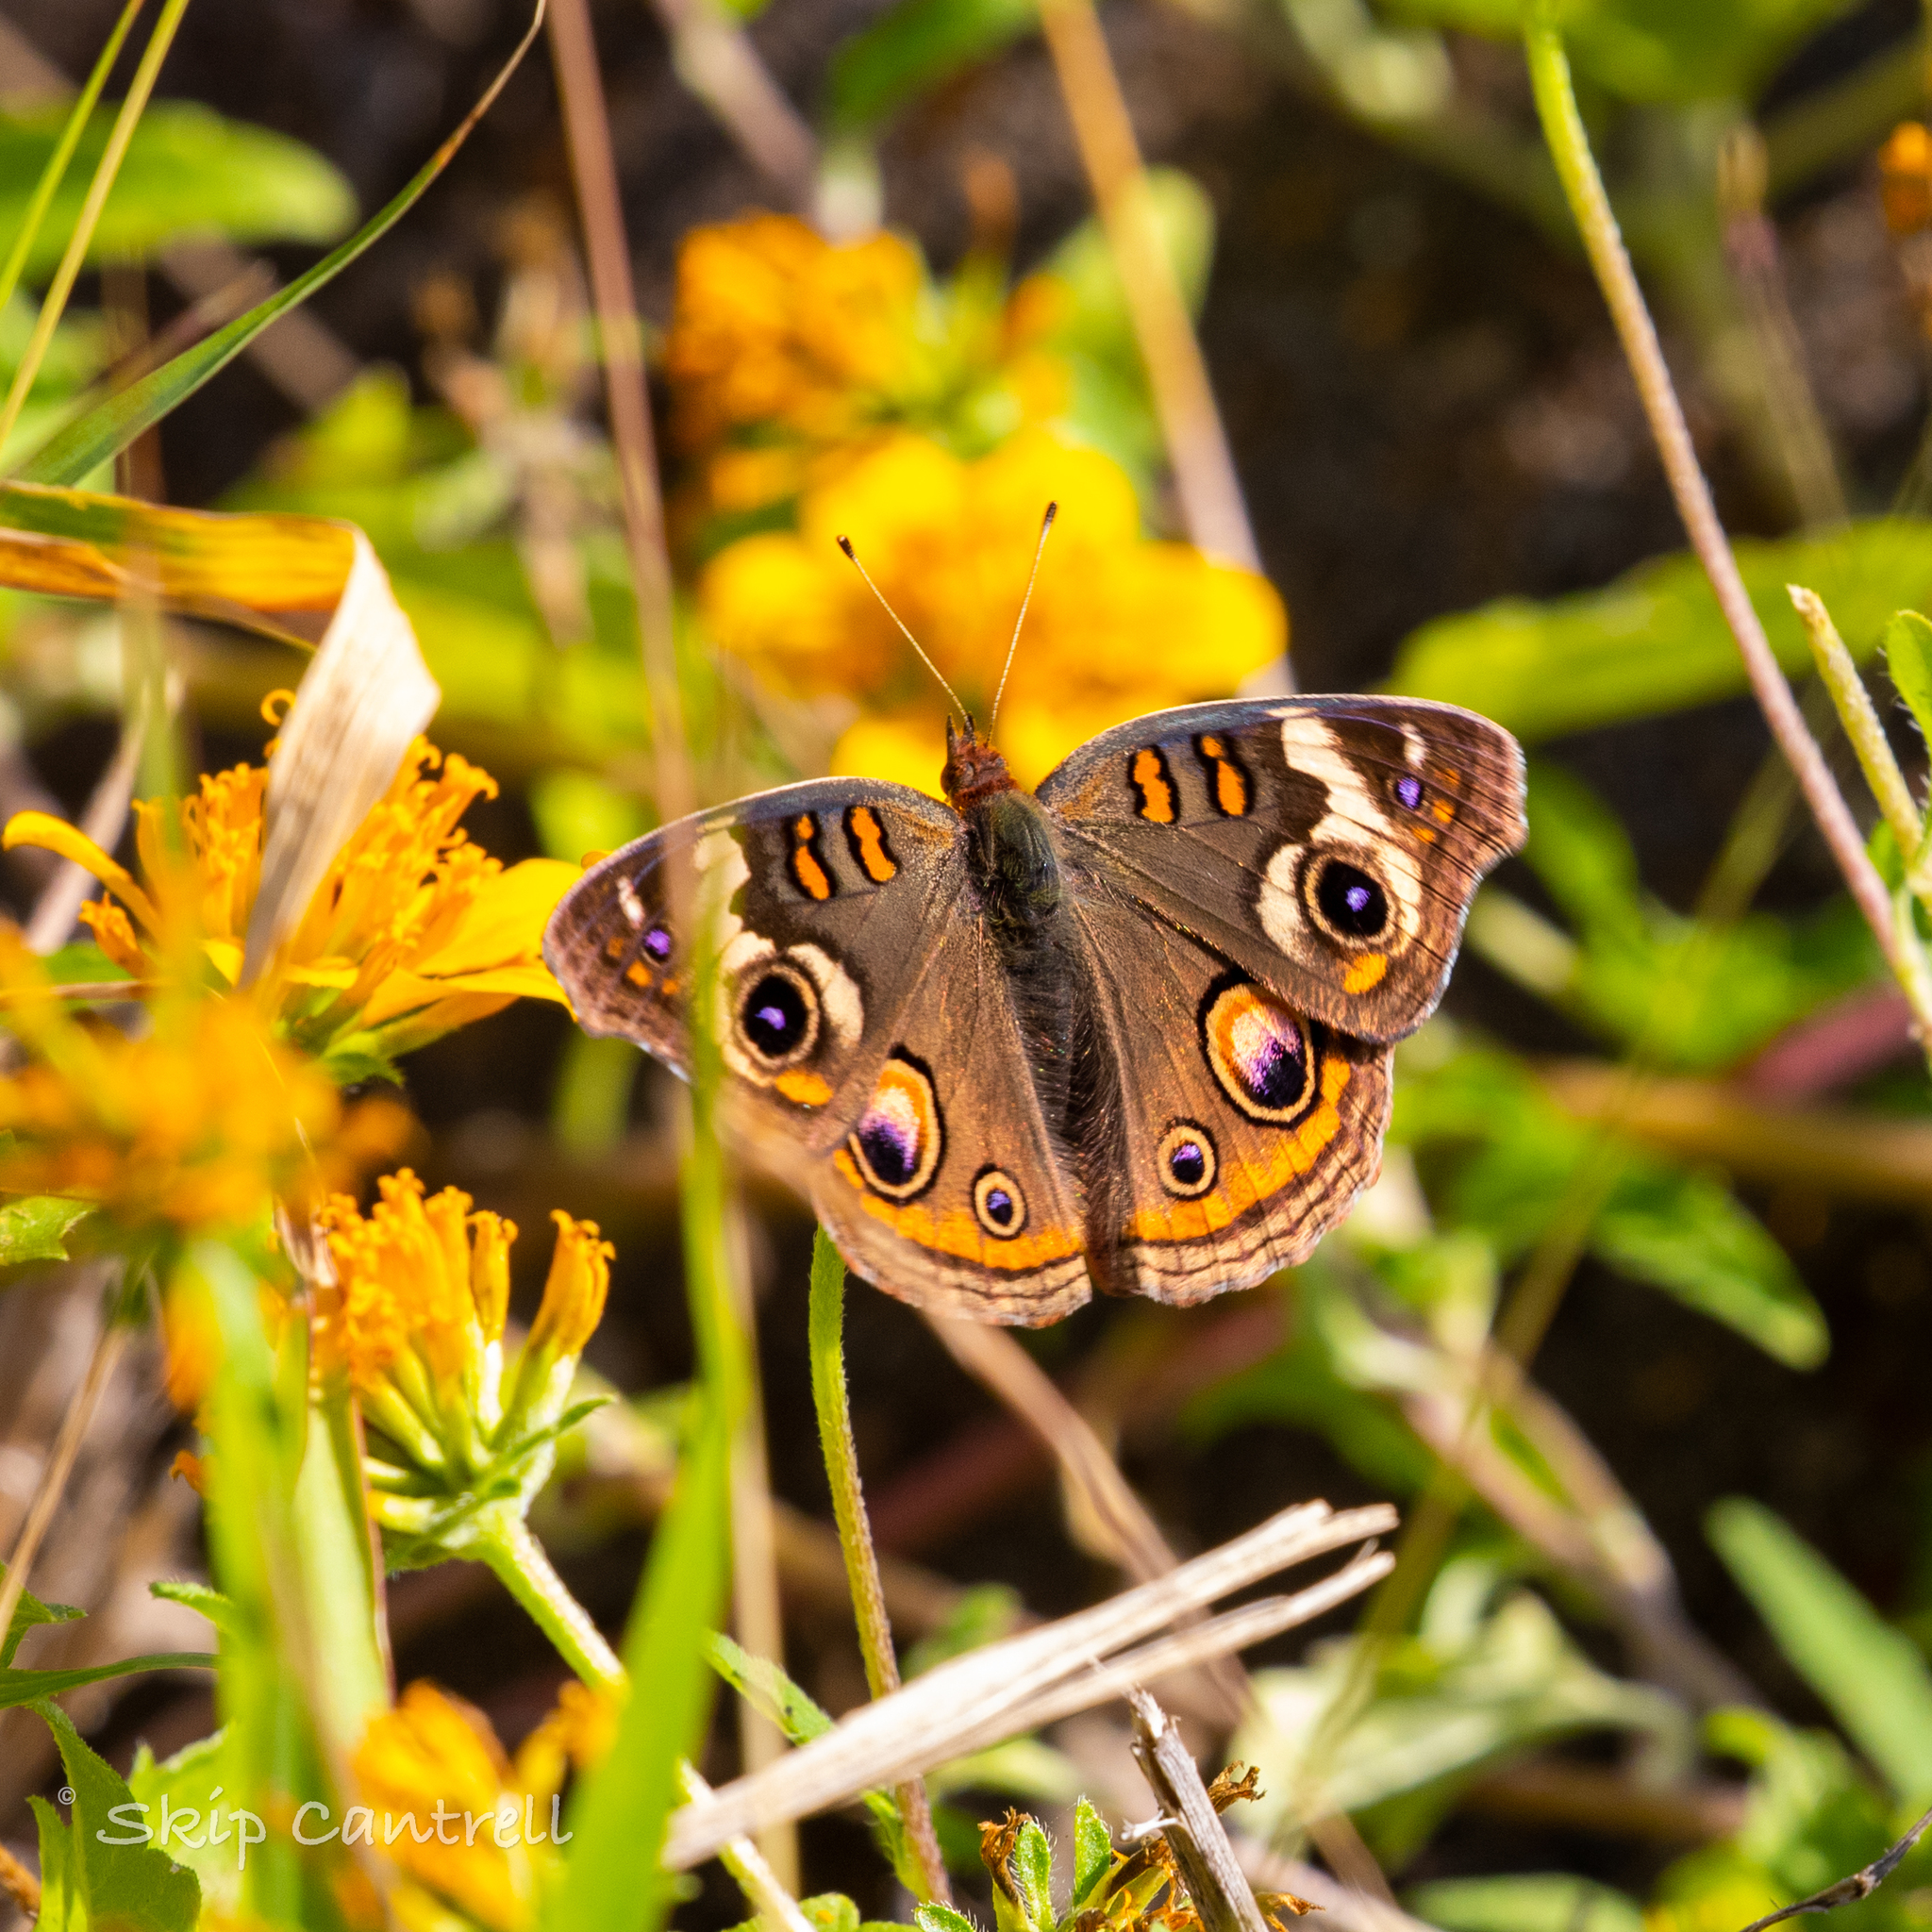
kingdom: Animalia
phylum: Arthropoda
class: Insecta
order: Lepidoptera
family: Nymphalidae
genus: Junonia
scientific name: Junonia coenia
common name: Common buckeye
